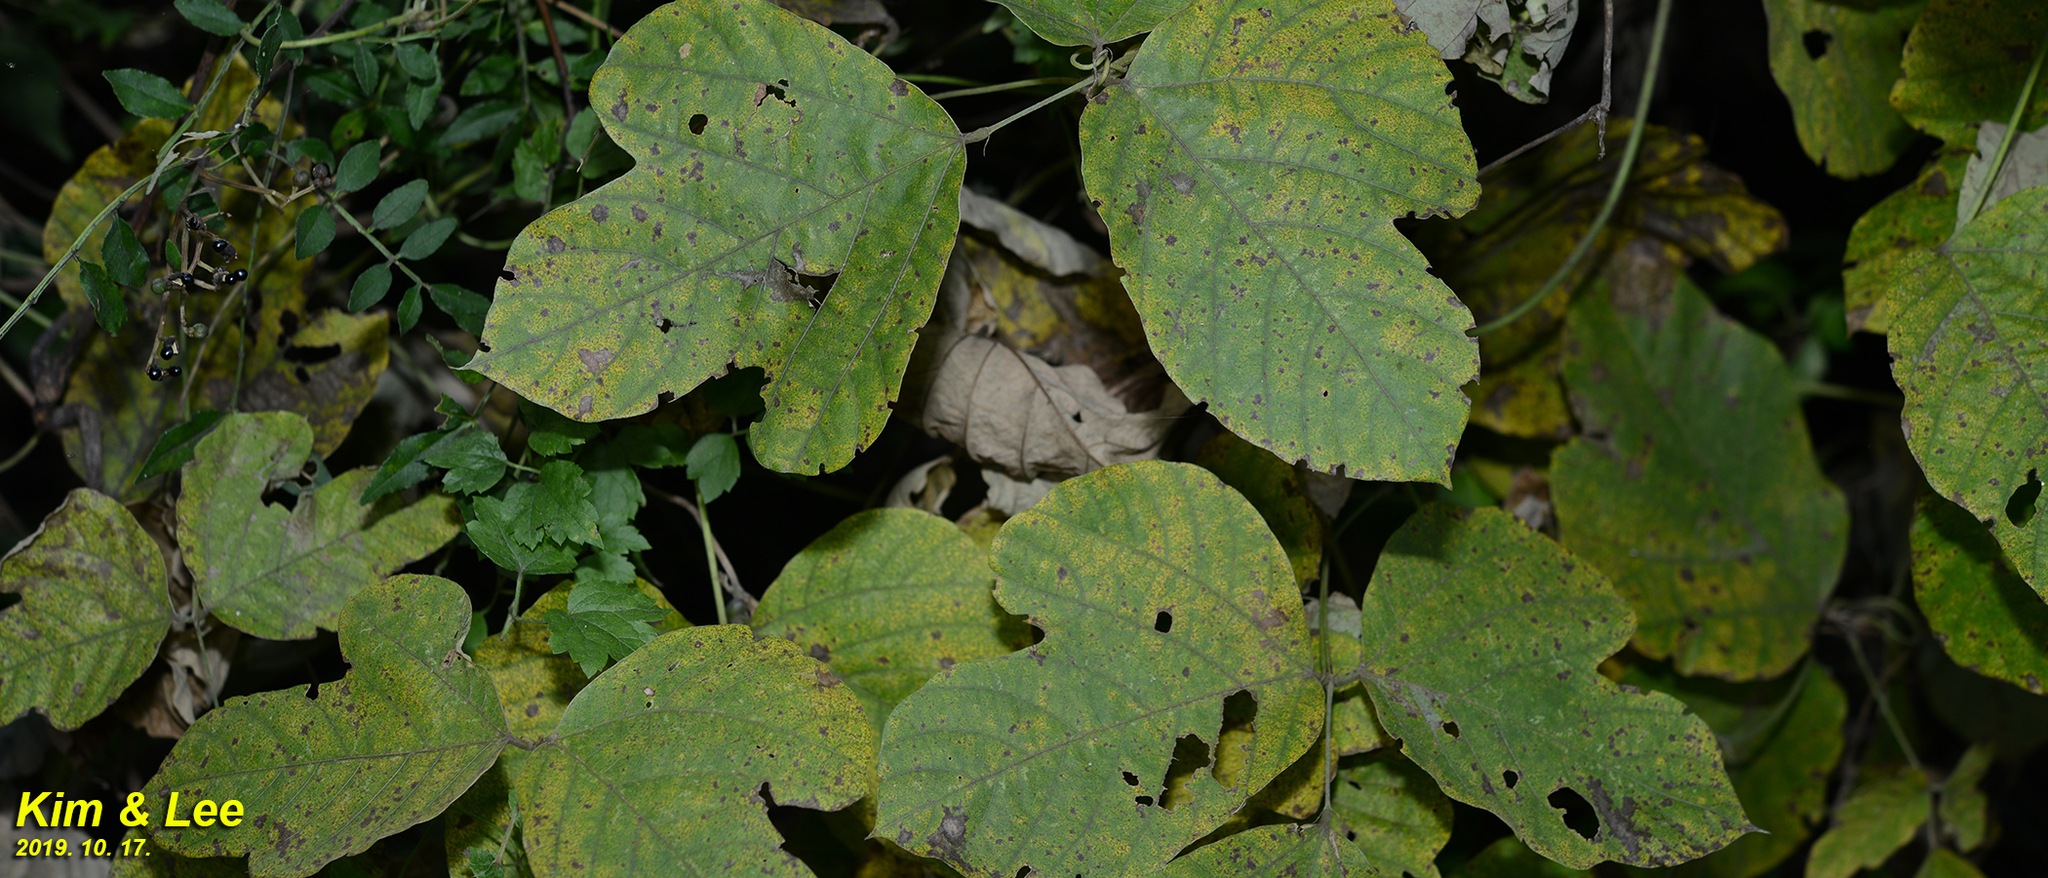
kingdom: Plantae
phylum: Tracheophyta
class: Magnoliopsida
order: Fabales
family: Fabaceae
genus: Pueraria
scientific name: Pueraria montana
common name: Kudzu
